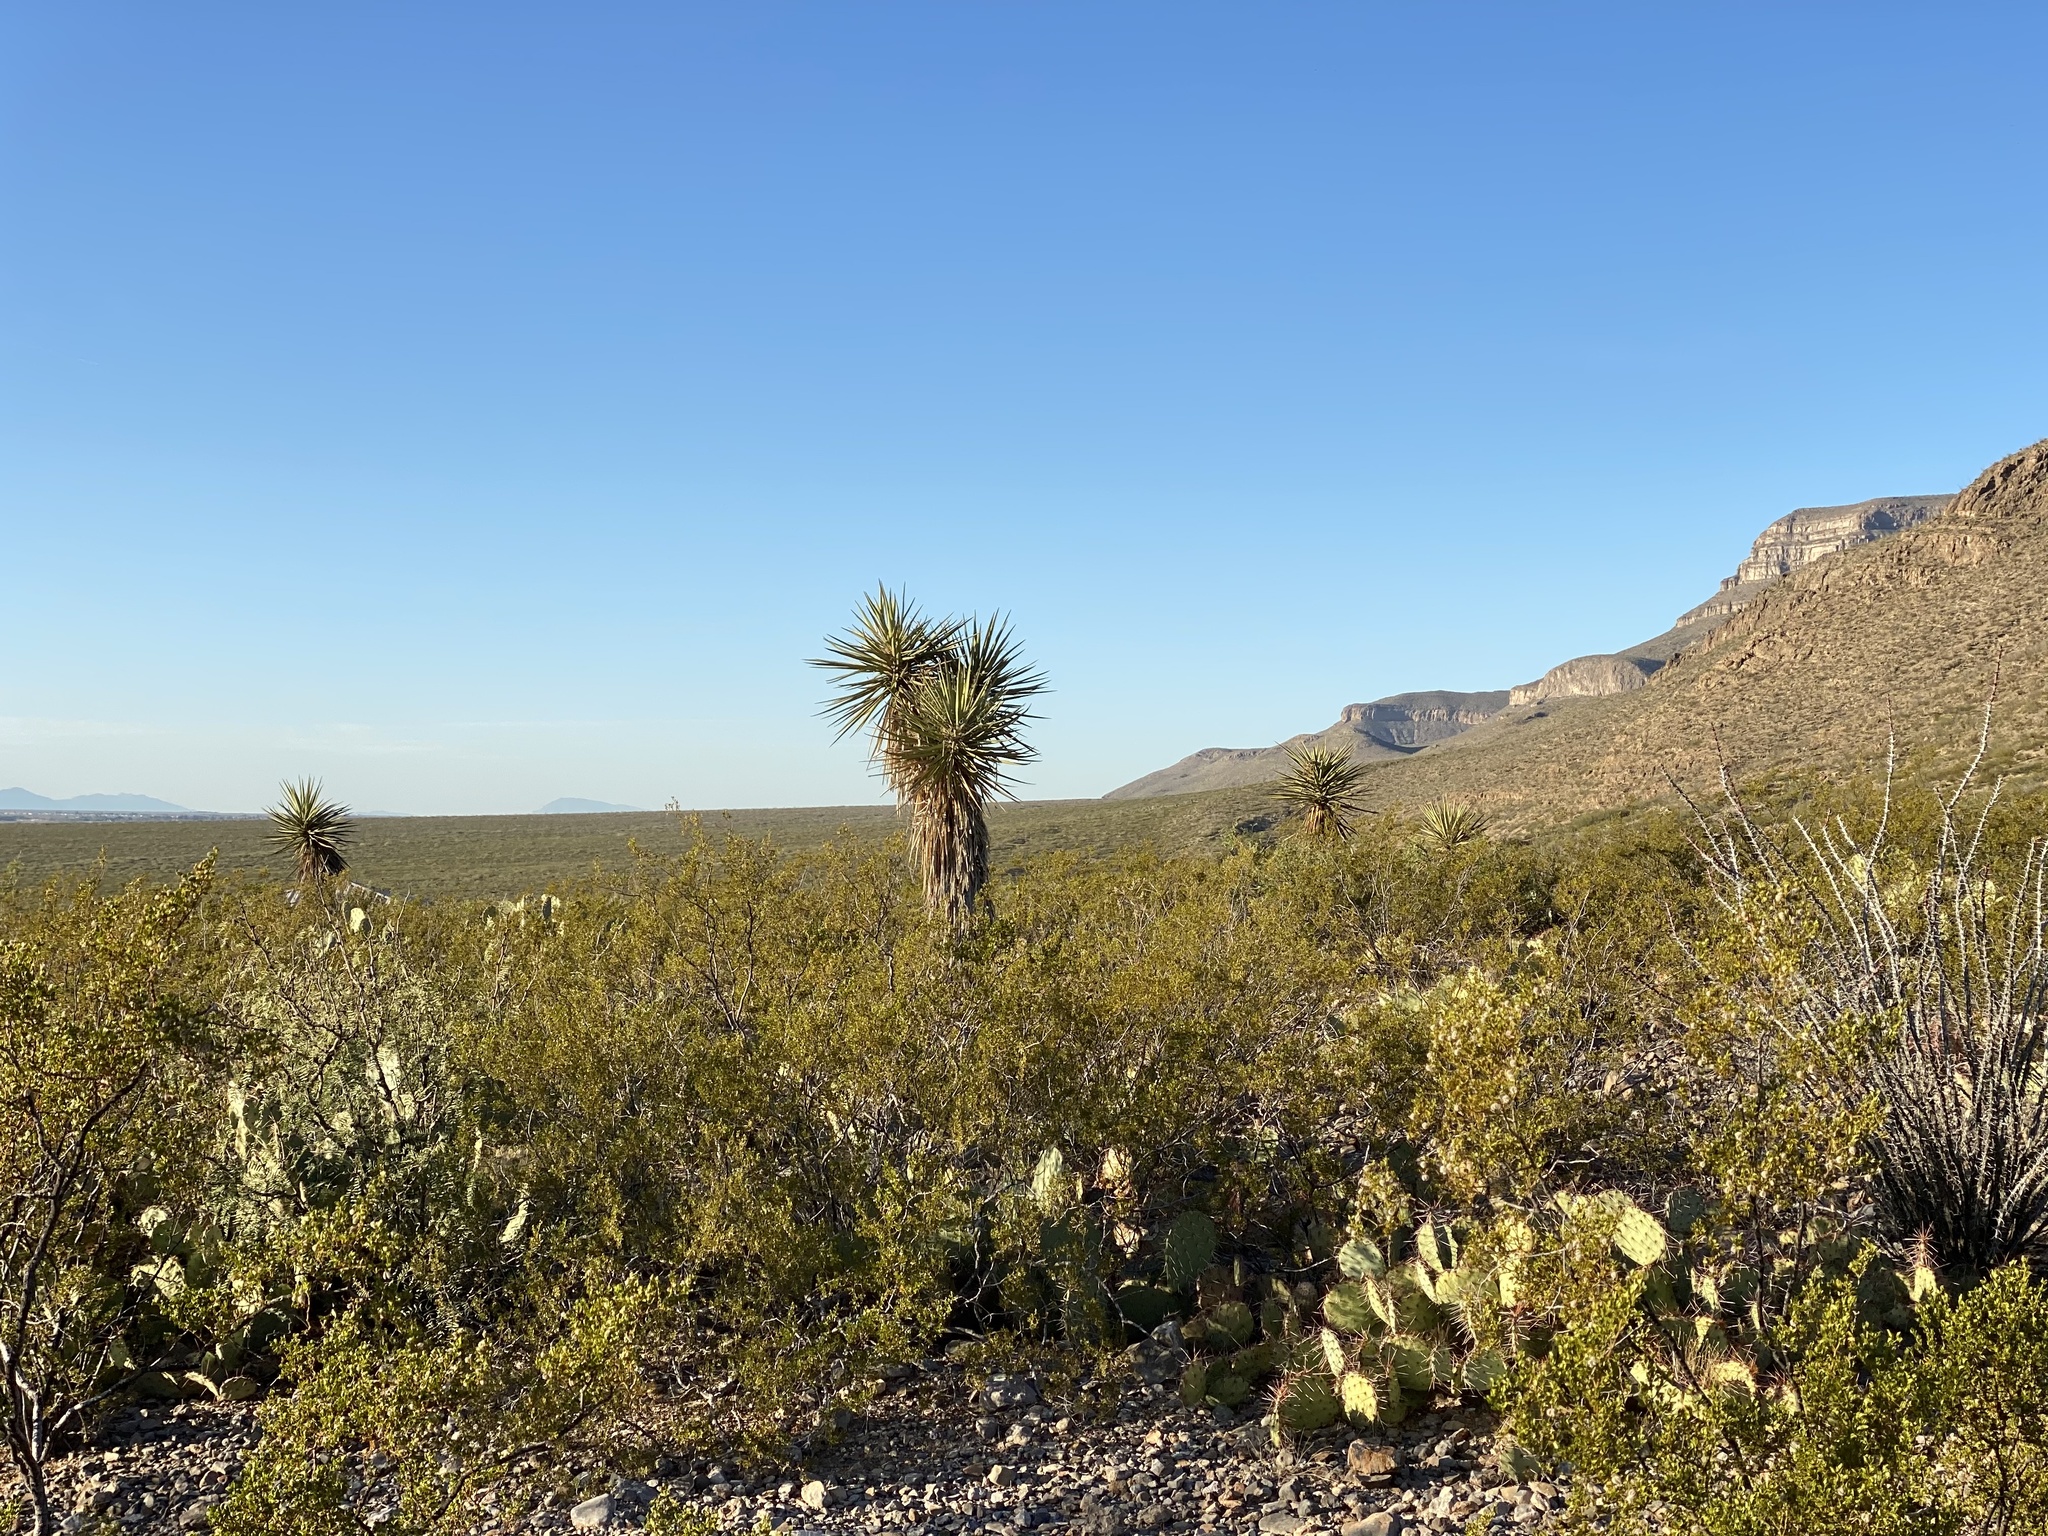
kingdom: Plantae
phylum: Tracheophyta
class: Liliopsida
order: Asparagales
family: Asparagaceae
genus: Yucca
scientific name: Yucca treculiana
